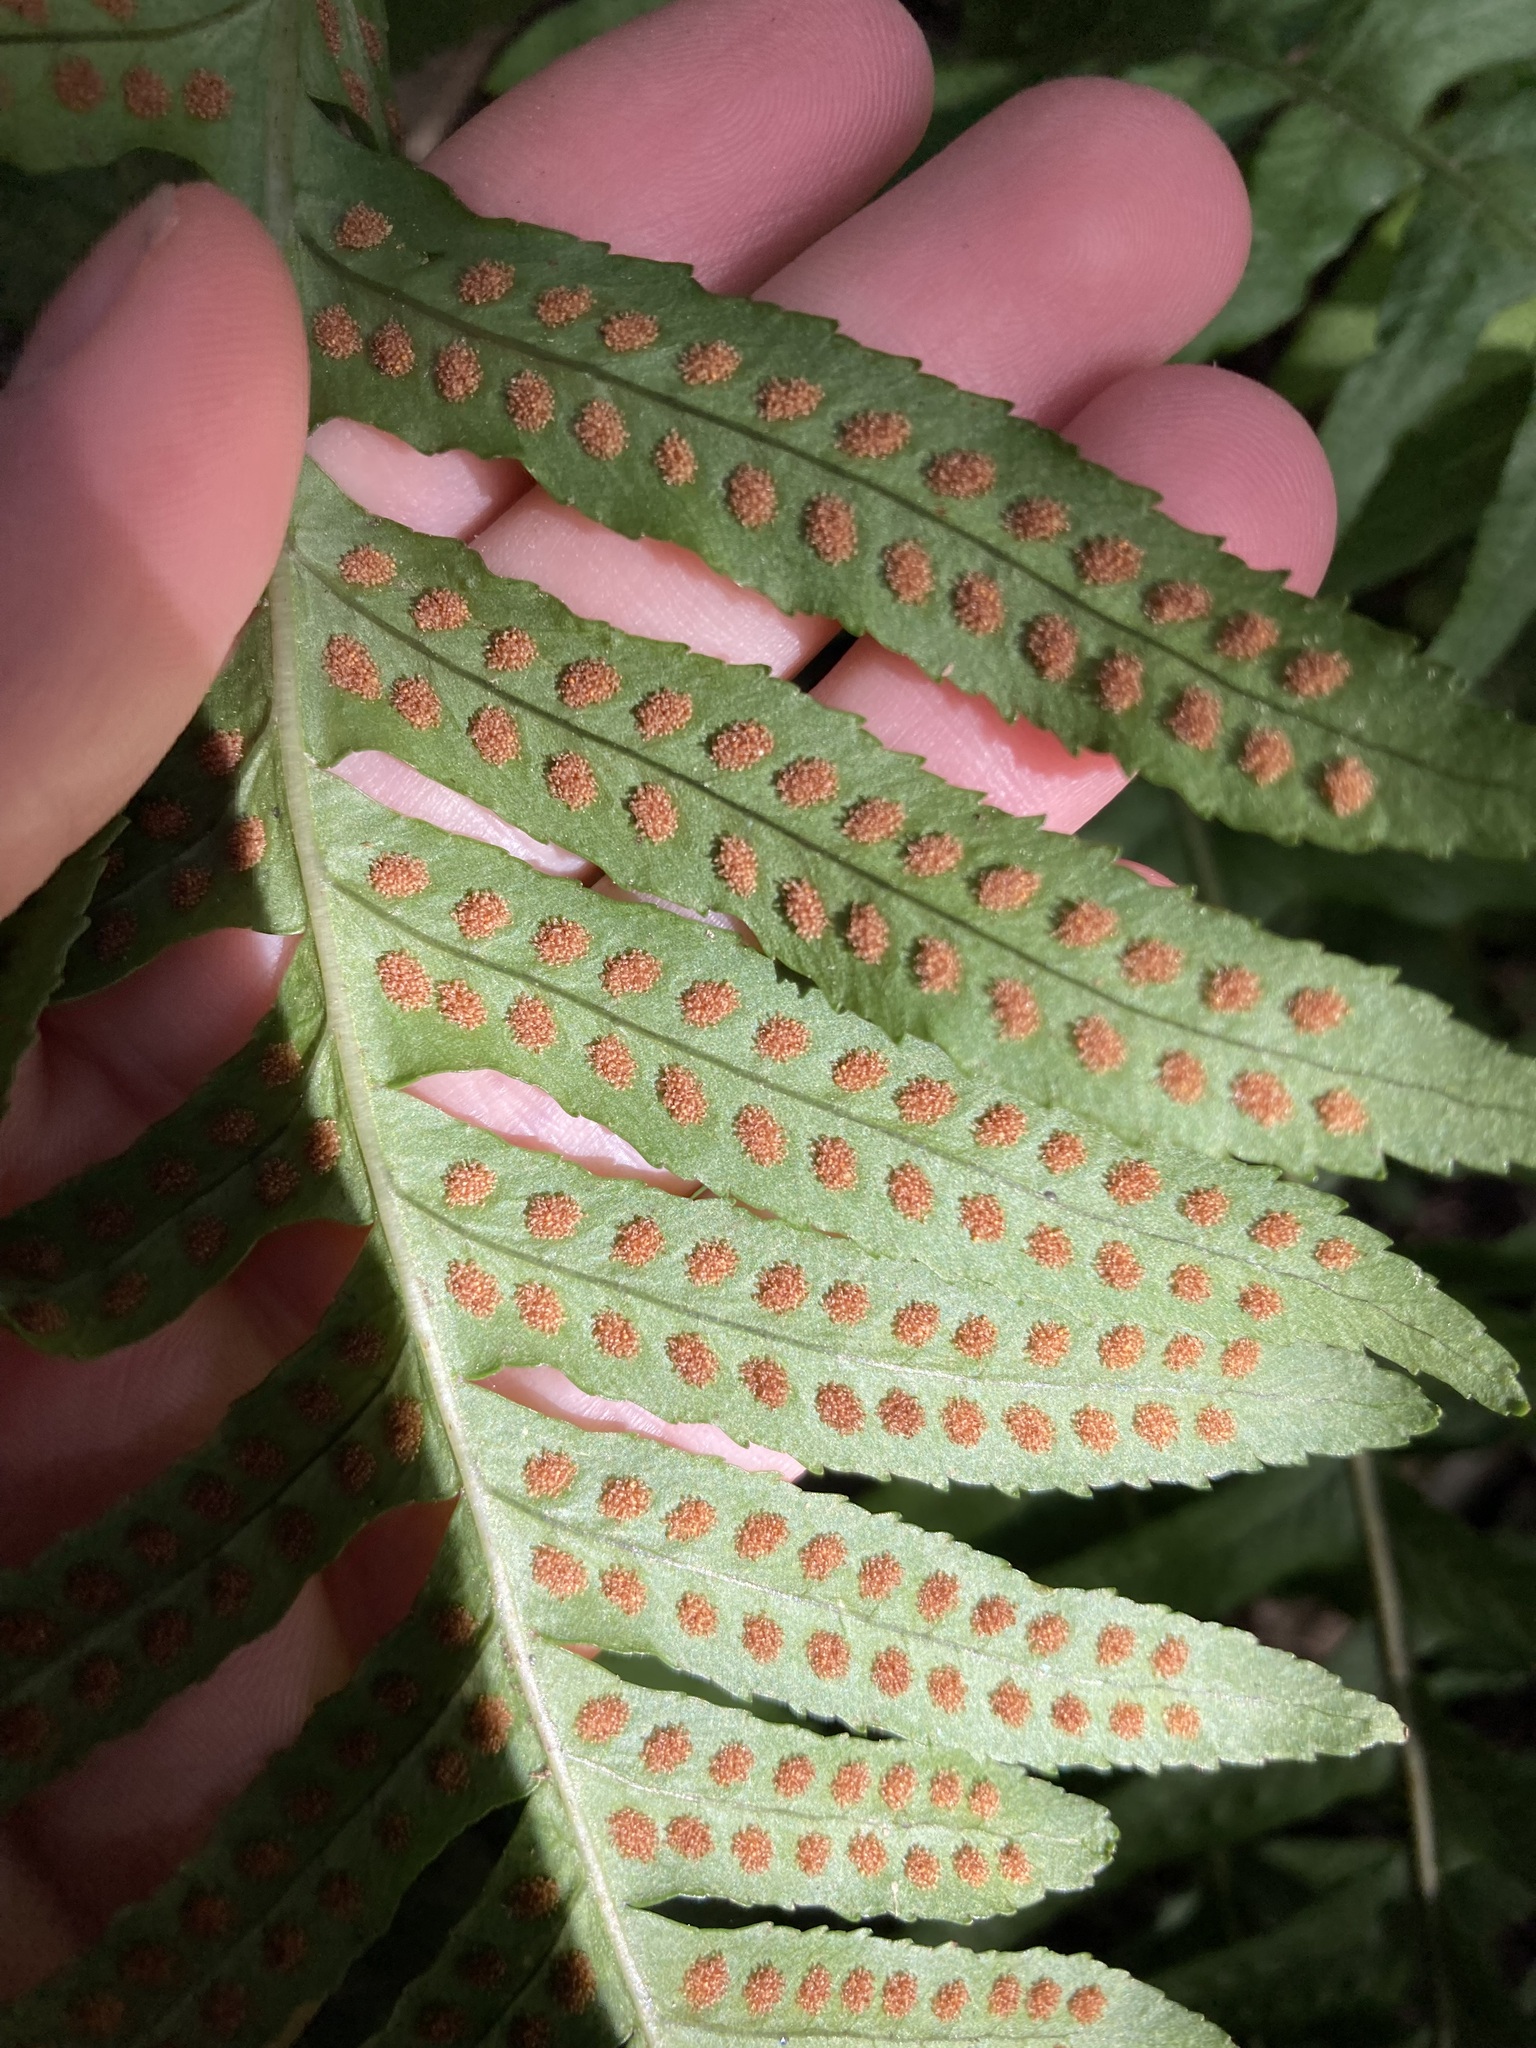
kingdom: Plantae
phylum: Tracheophyta
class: Polypodiopsida
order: Polypodiales
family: Polypodiaceae
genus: Polypodium
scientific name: Polypodium vulgare
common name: Common polypody
